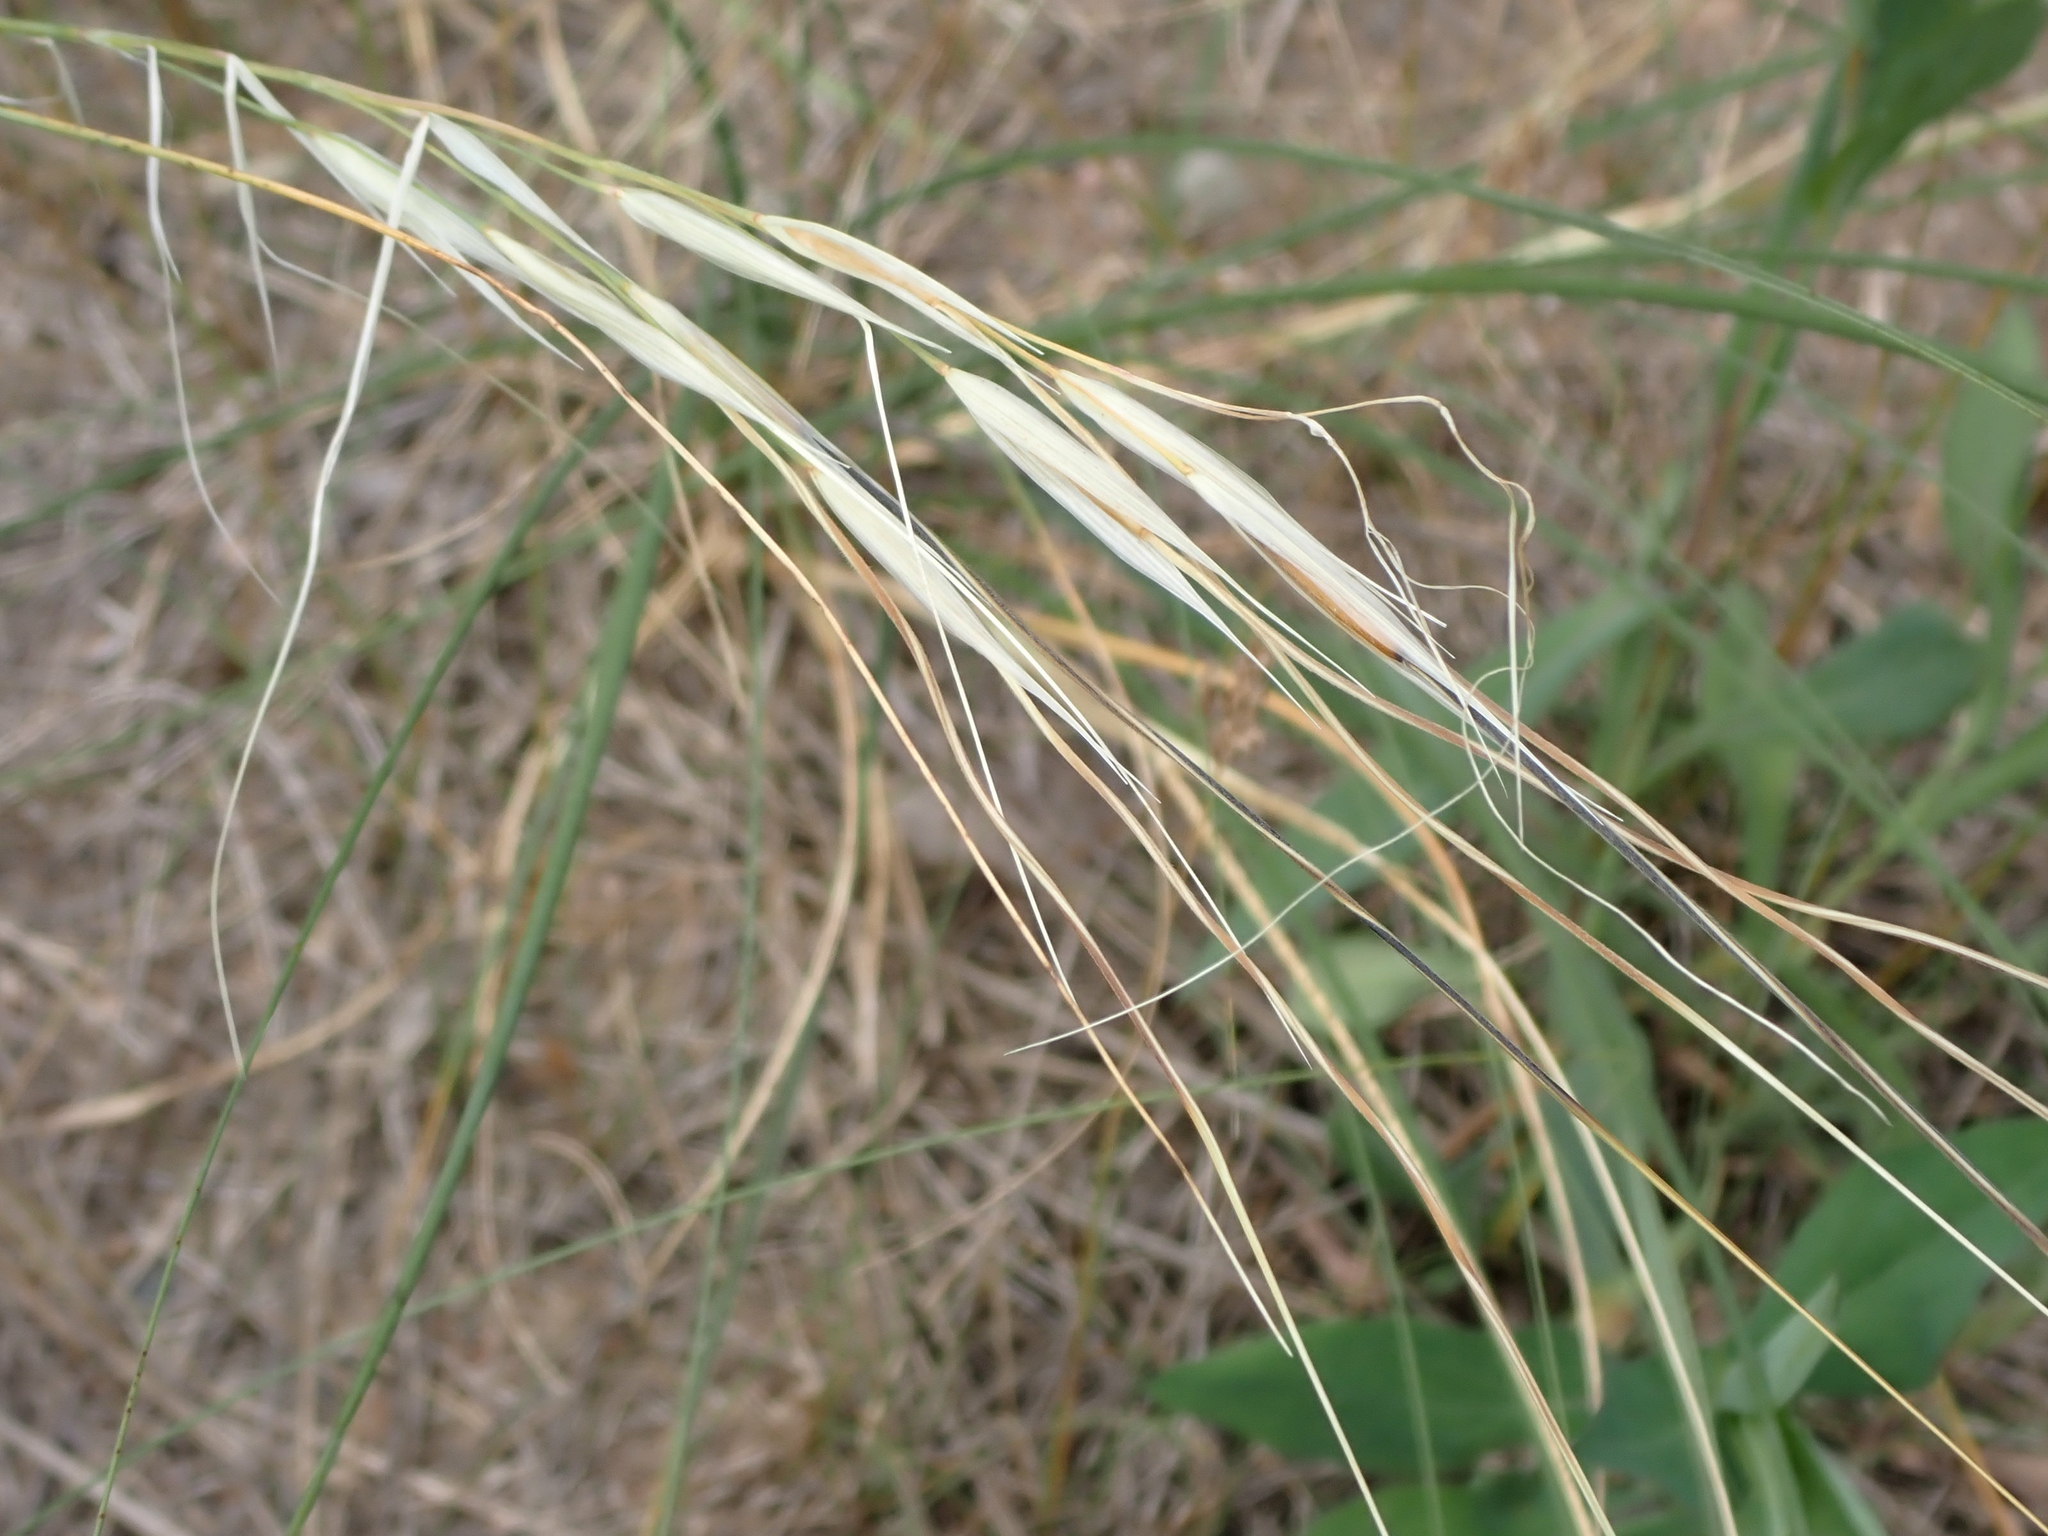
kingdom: Plantae
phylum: Tracheophyta
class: Liliopsida
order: Poales
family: Poaceae
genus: Hesperostipa
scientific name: Hesperostipa spartea
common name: Porcupine grass
